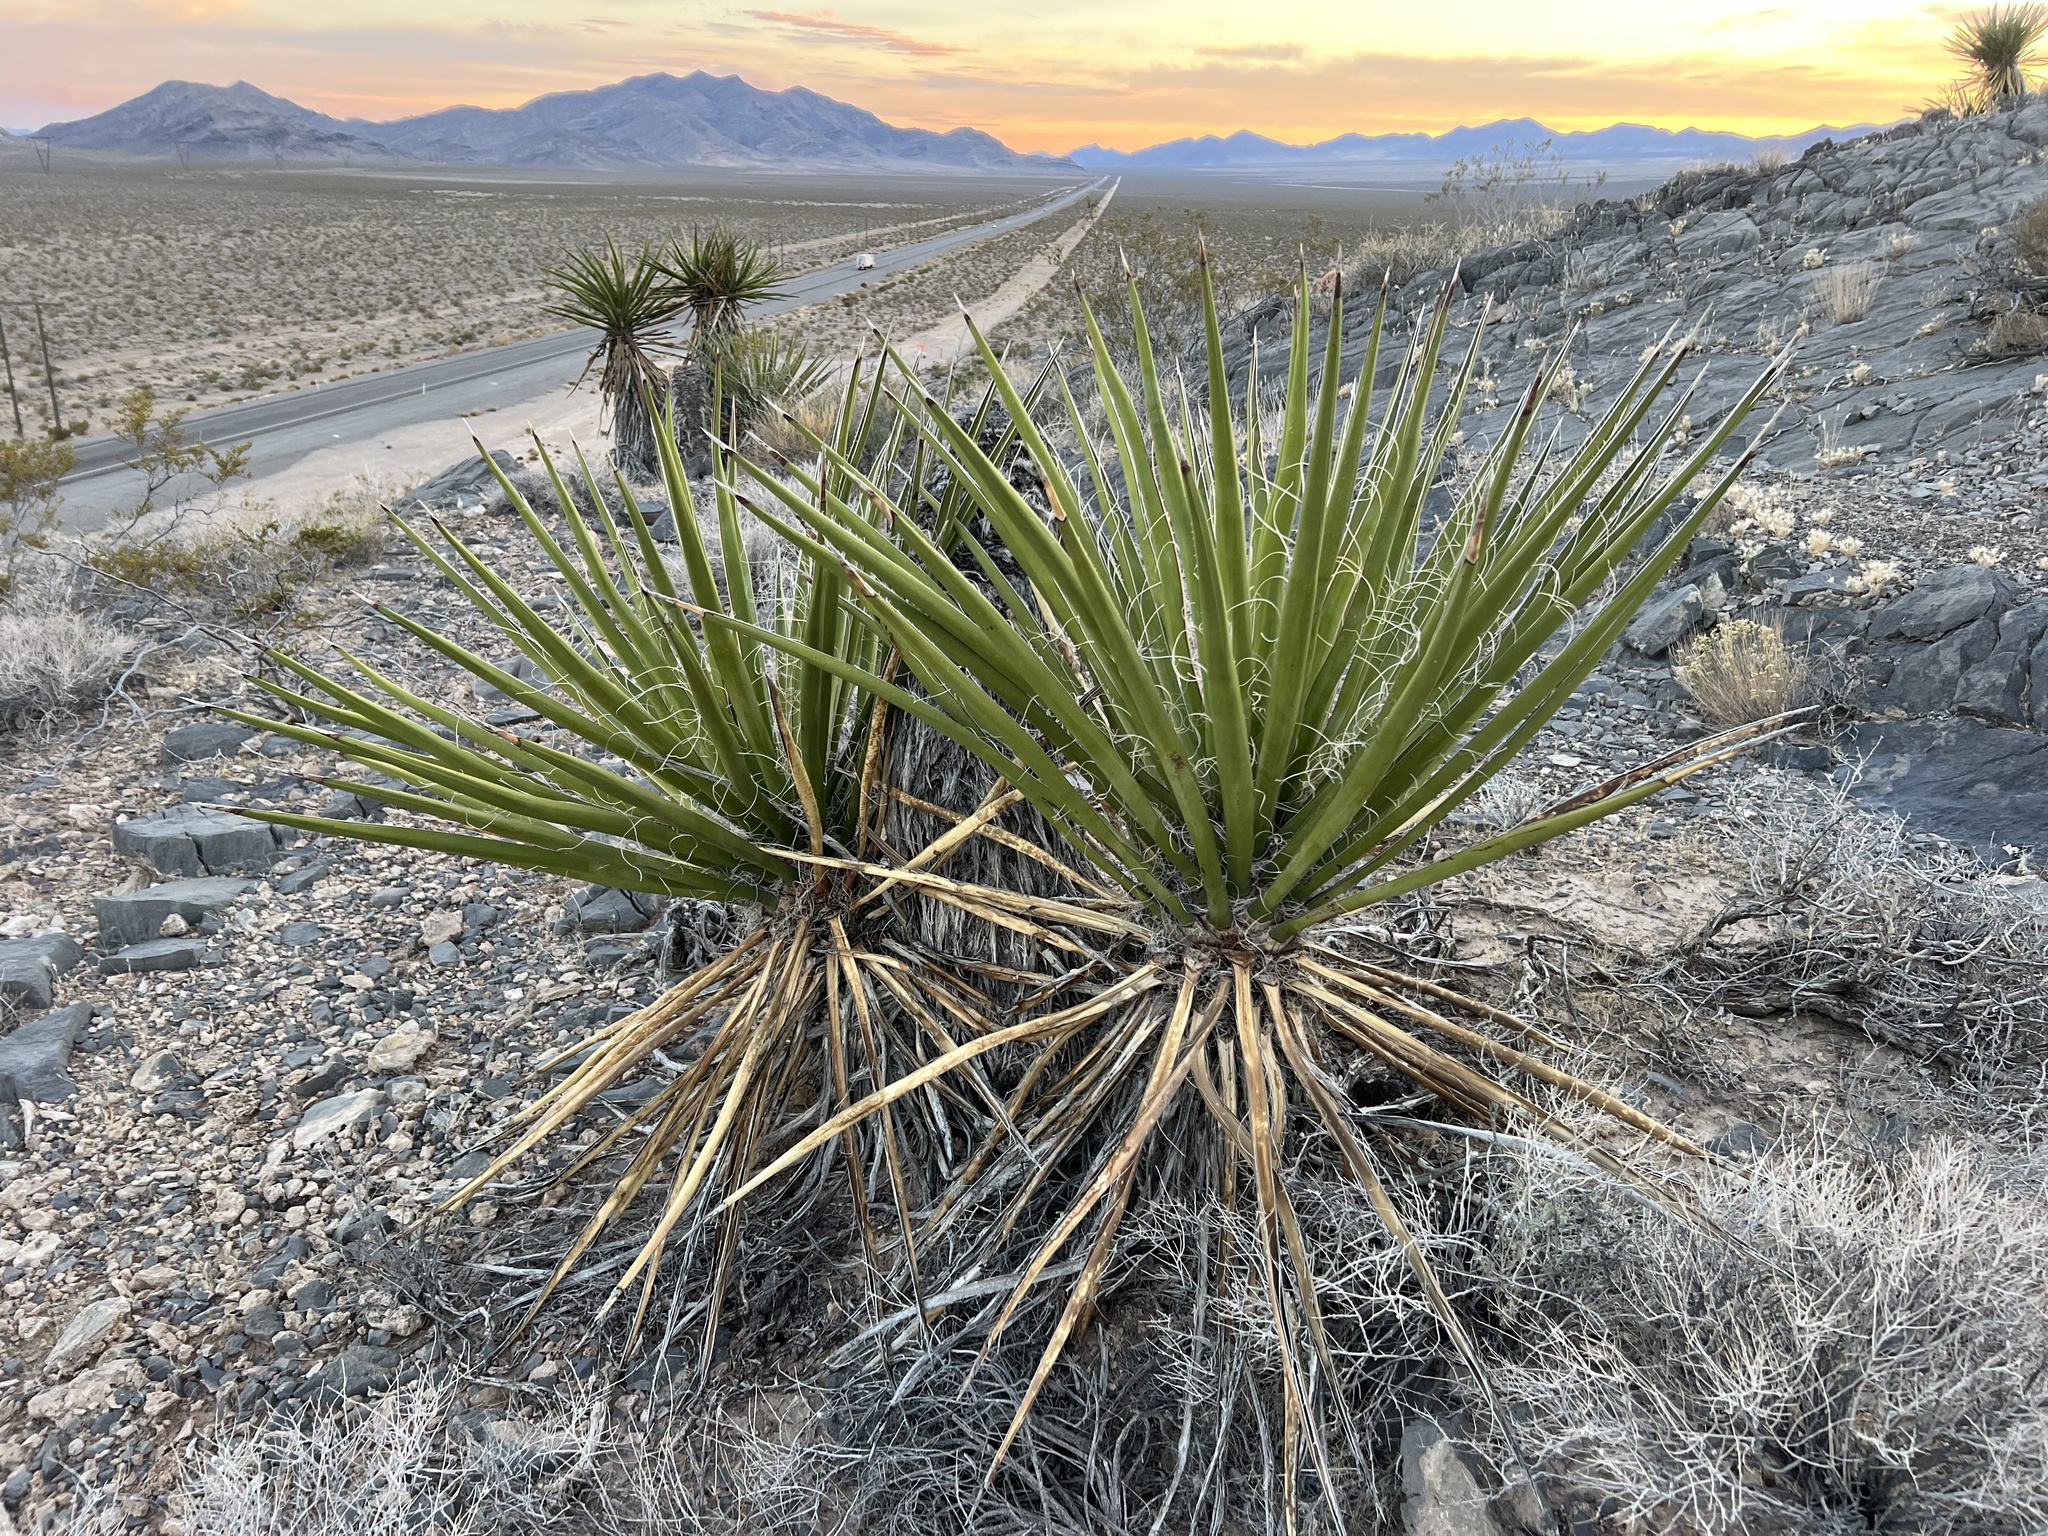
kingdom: Plantae
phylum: Tracheophyta
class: Liliopsida
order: Asparagales
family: Asparagaceae
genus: Yucca
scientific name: Yucca schidigera
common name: Mojave yucca
